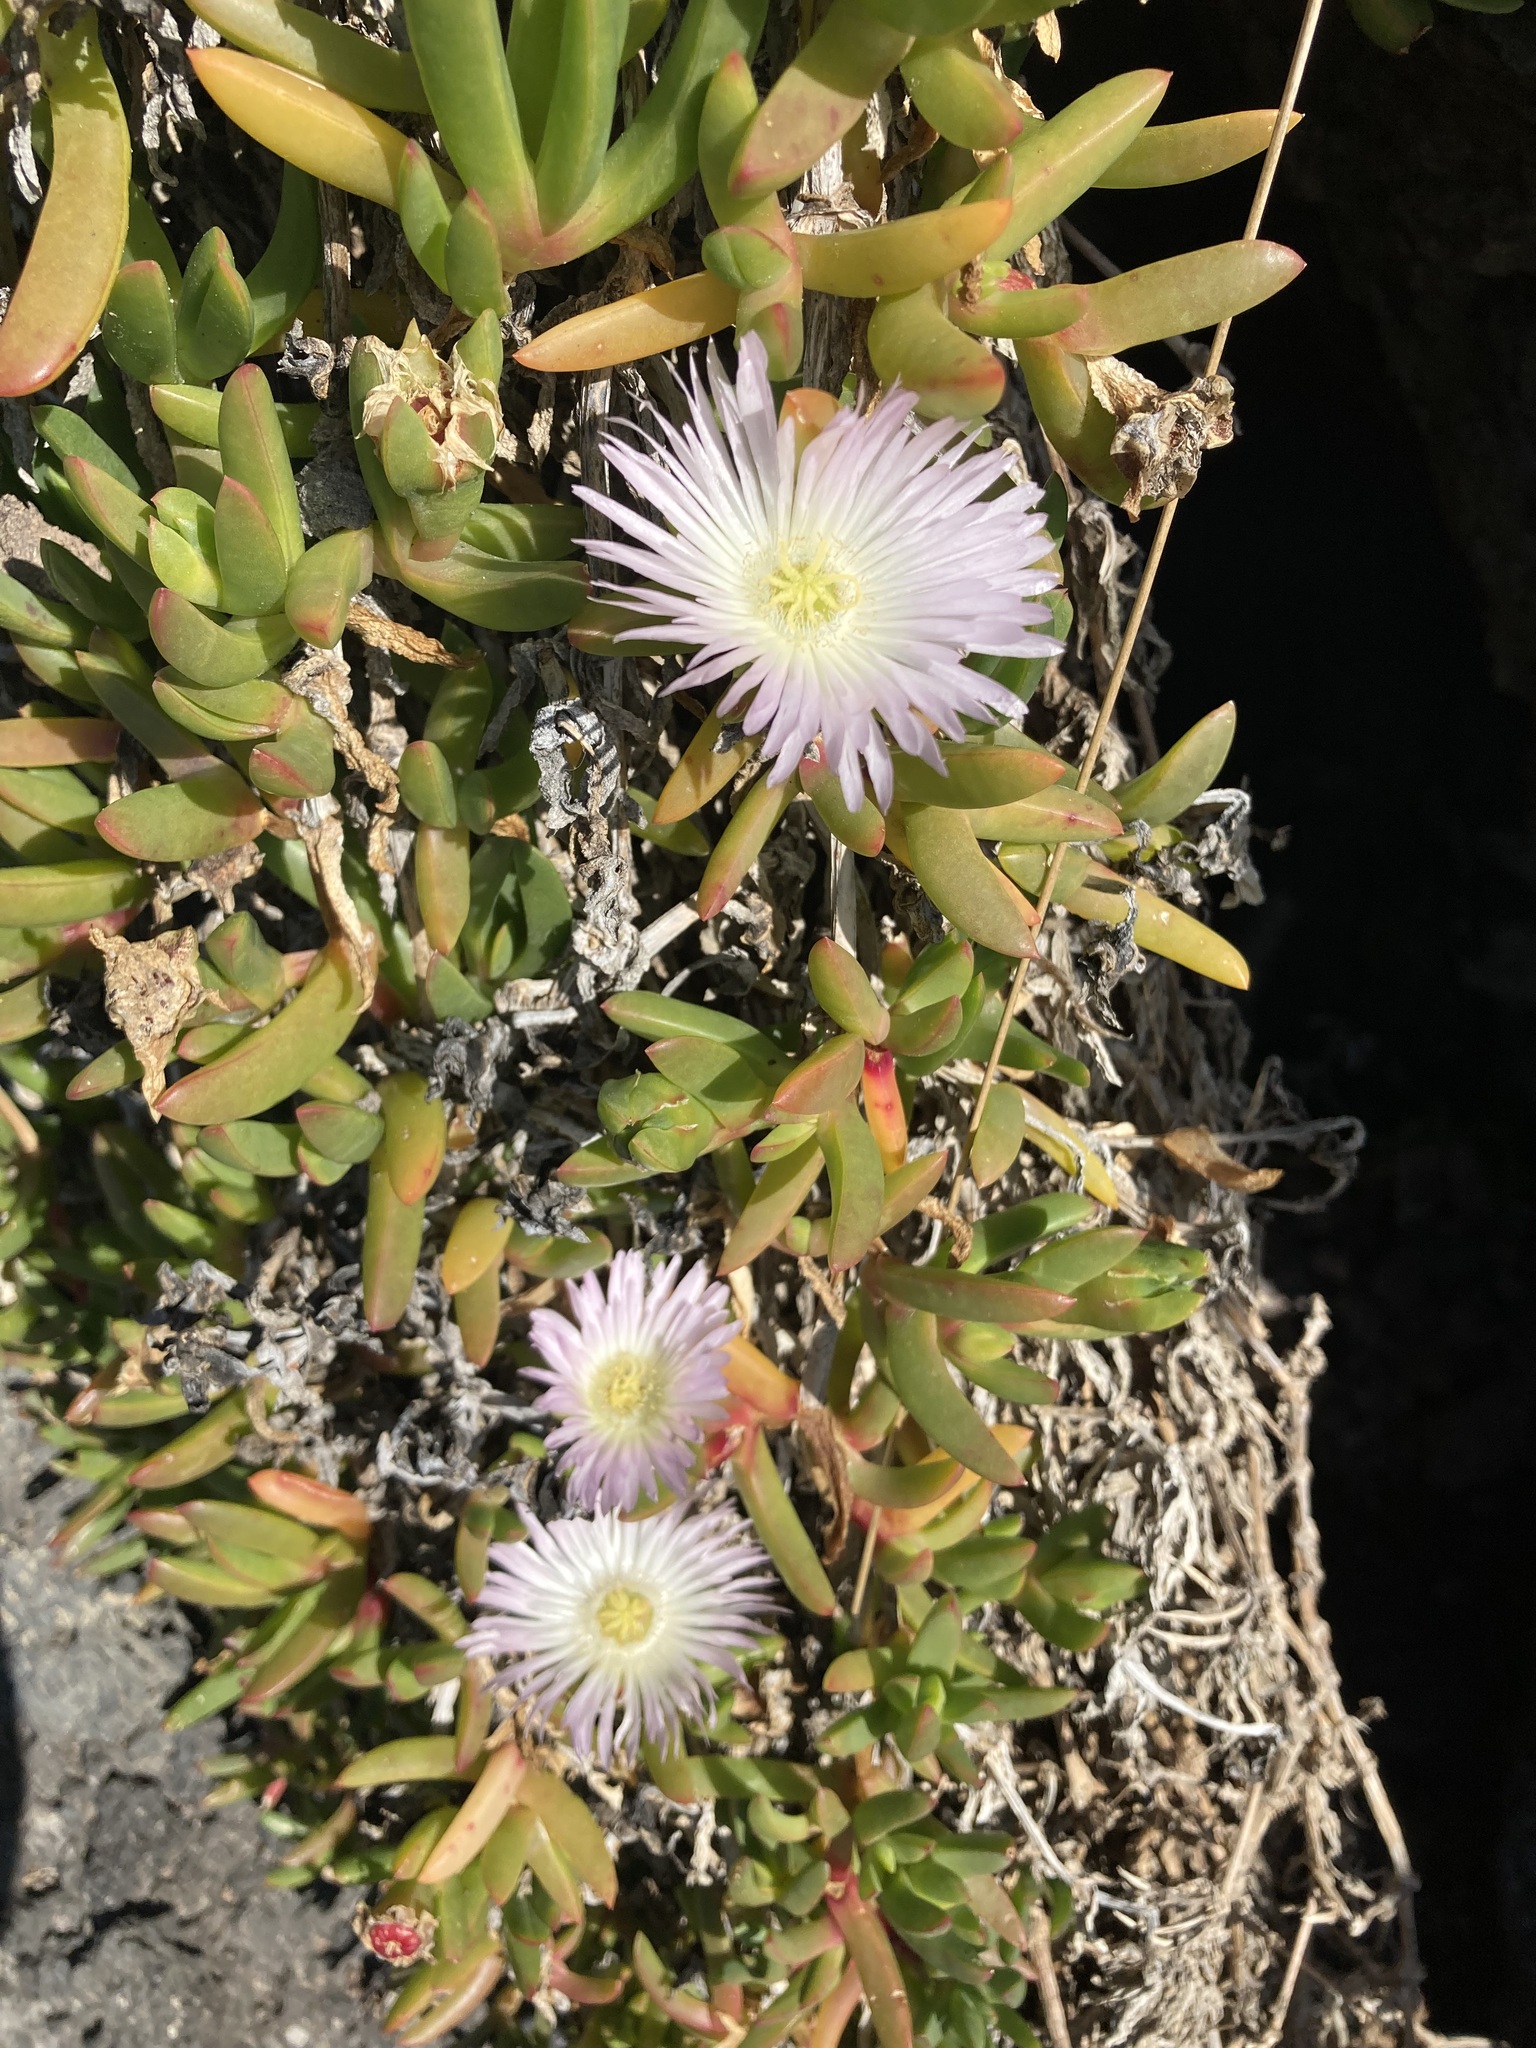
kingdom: Plantae
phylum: Tracheophyta
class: Magnoliopsida
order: Caryophyllales
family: Aizoaceae
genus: Disphyma
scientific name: Disphyma australe
